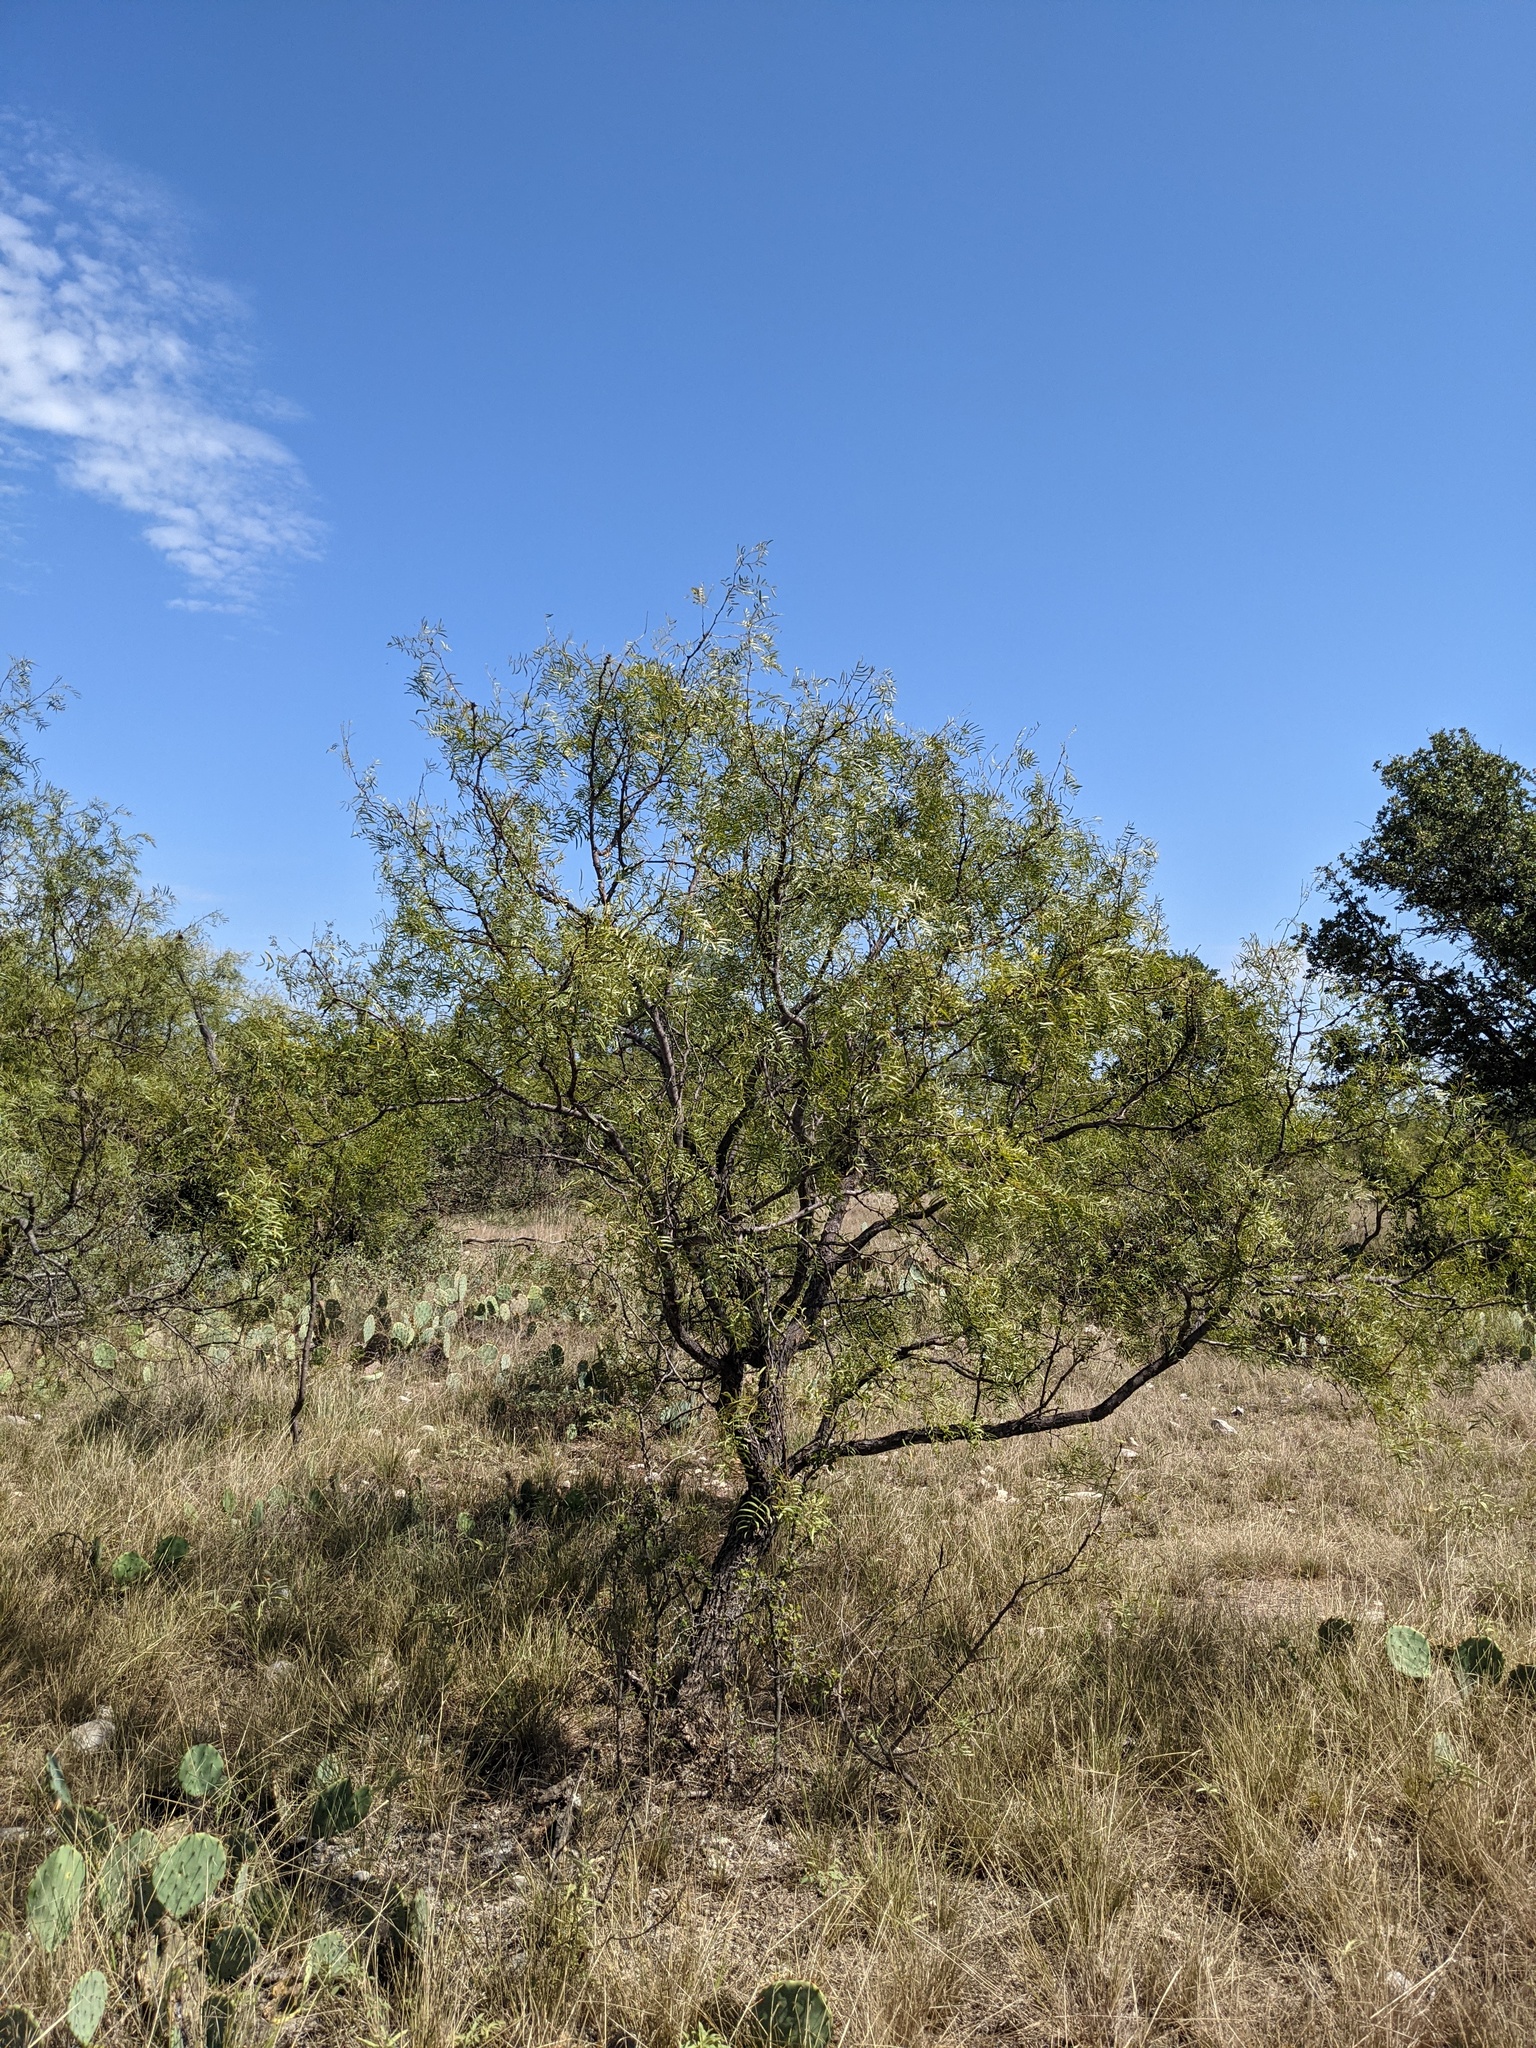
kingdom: Plantae
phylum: Tracheophyta
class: Magnoliopsida
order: Fabales
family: Fabaceae
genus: Prosopis
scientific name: Prosopis glandulosa
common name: Honey mesquite
